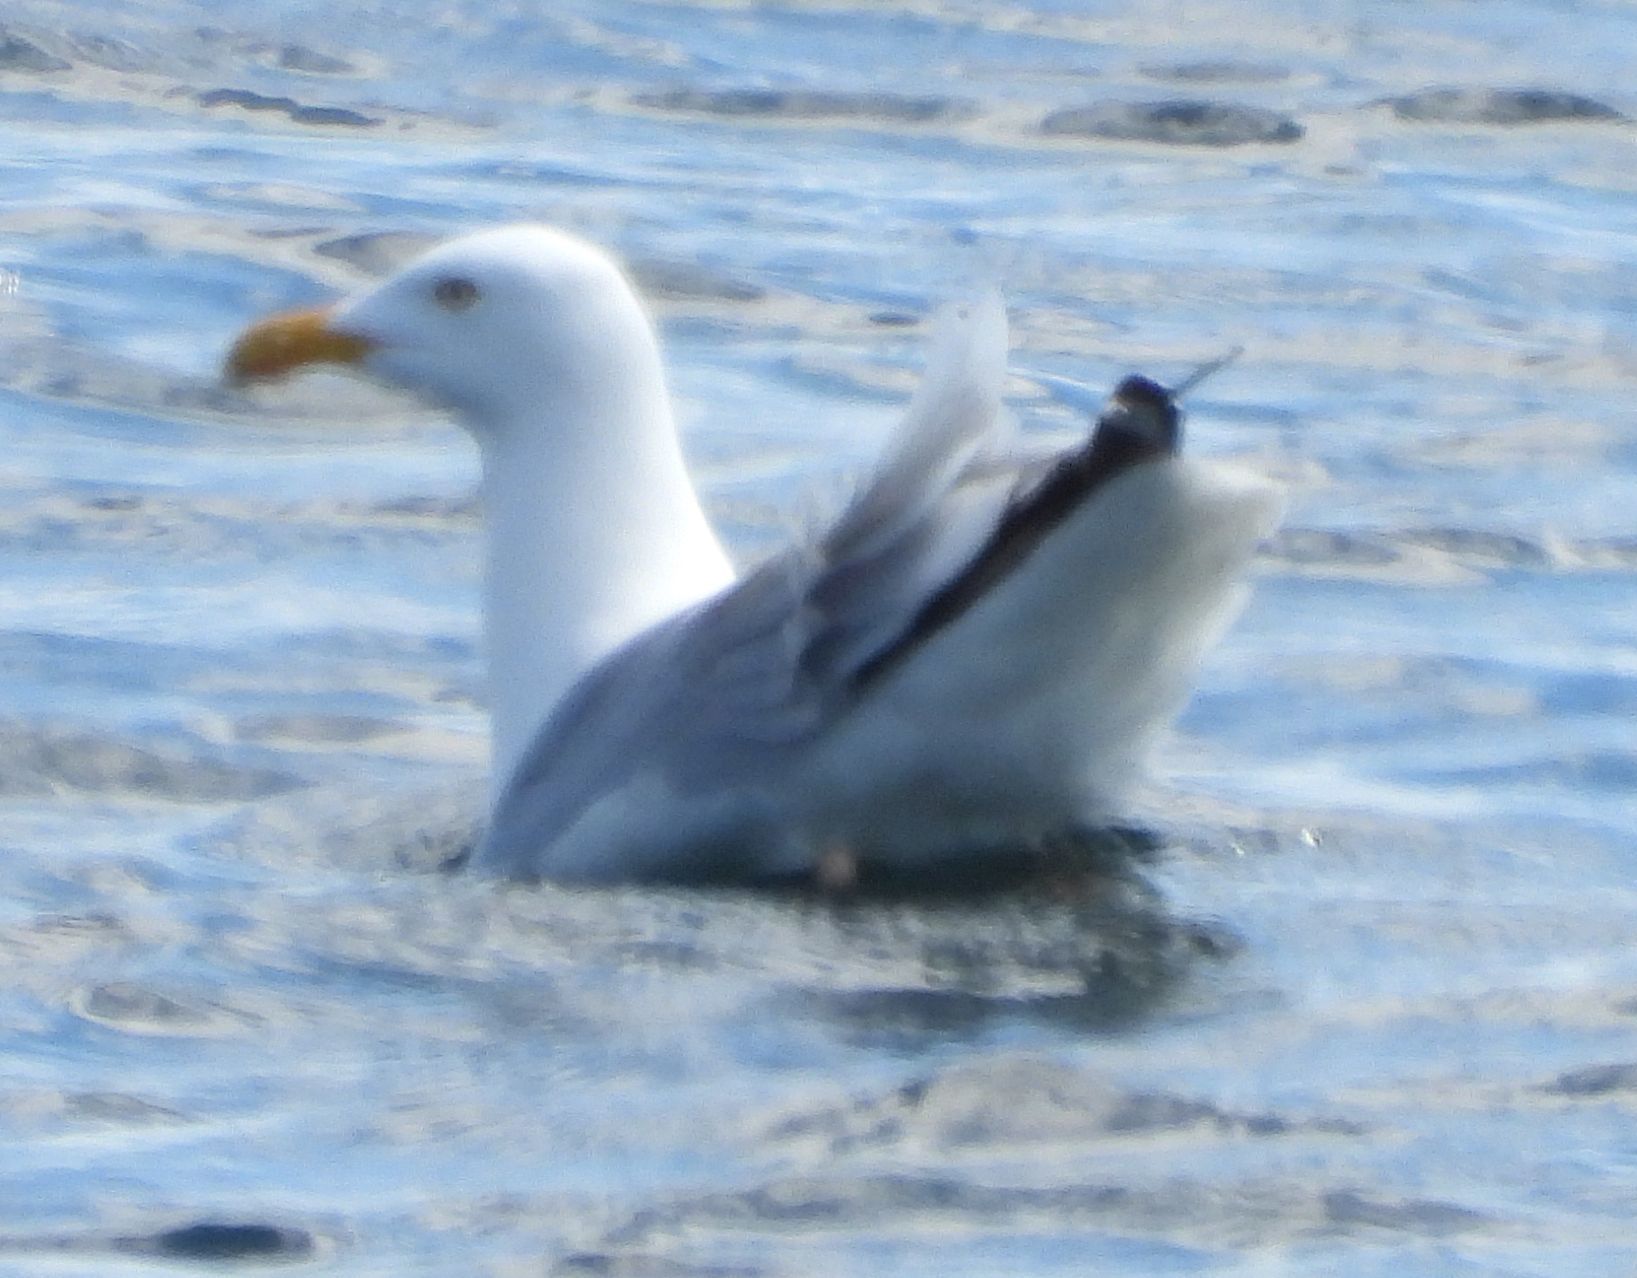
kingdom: Animalia
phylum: Chordata
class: Aves
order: Charadriiformes
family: Laridae
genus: Larus
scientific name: Larus argentatus
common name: Herring gull
